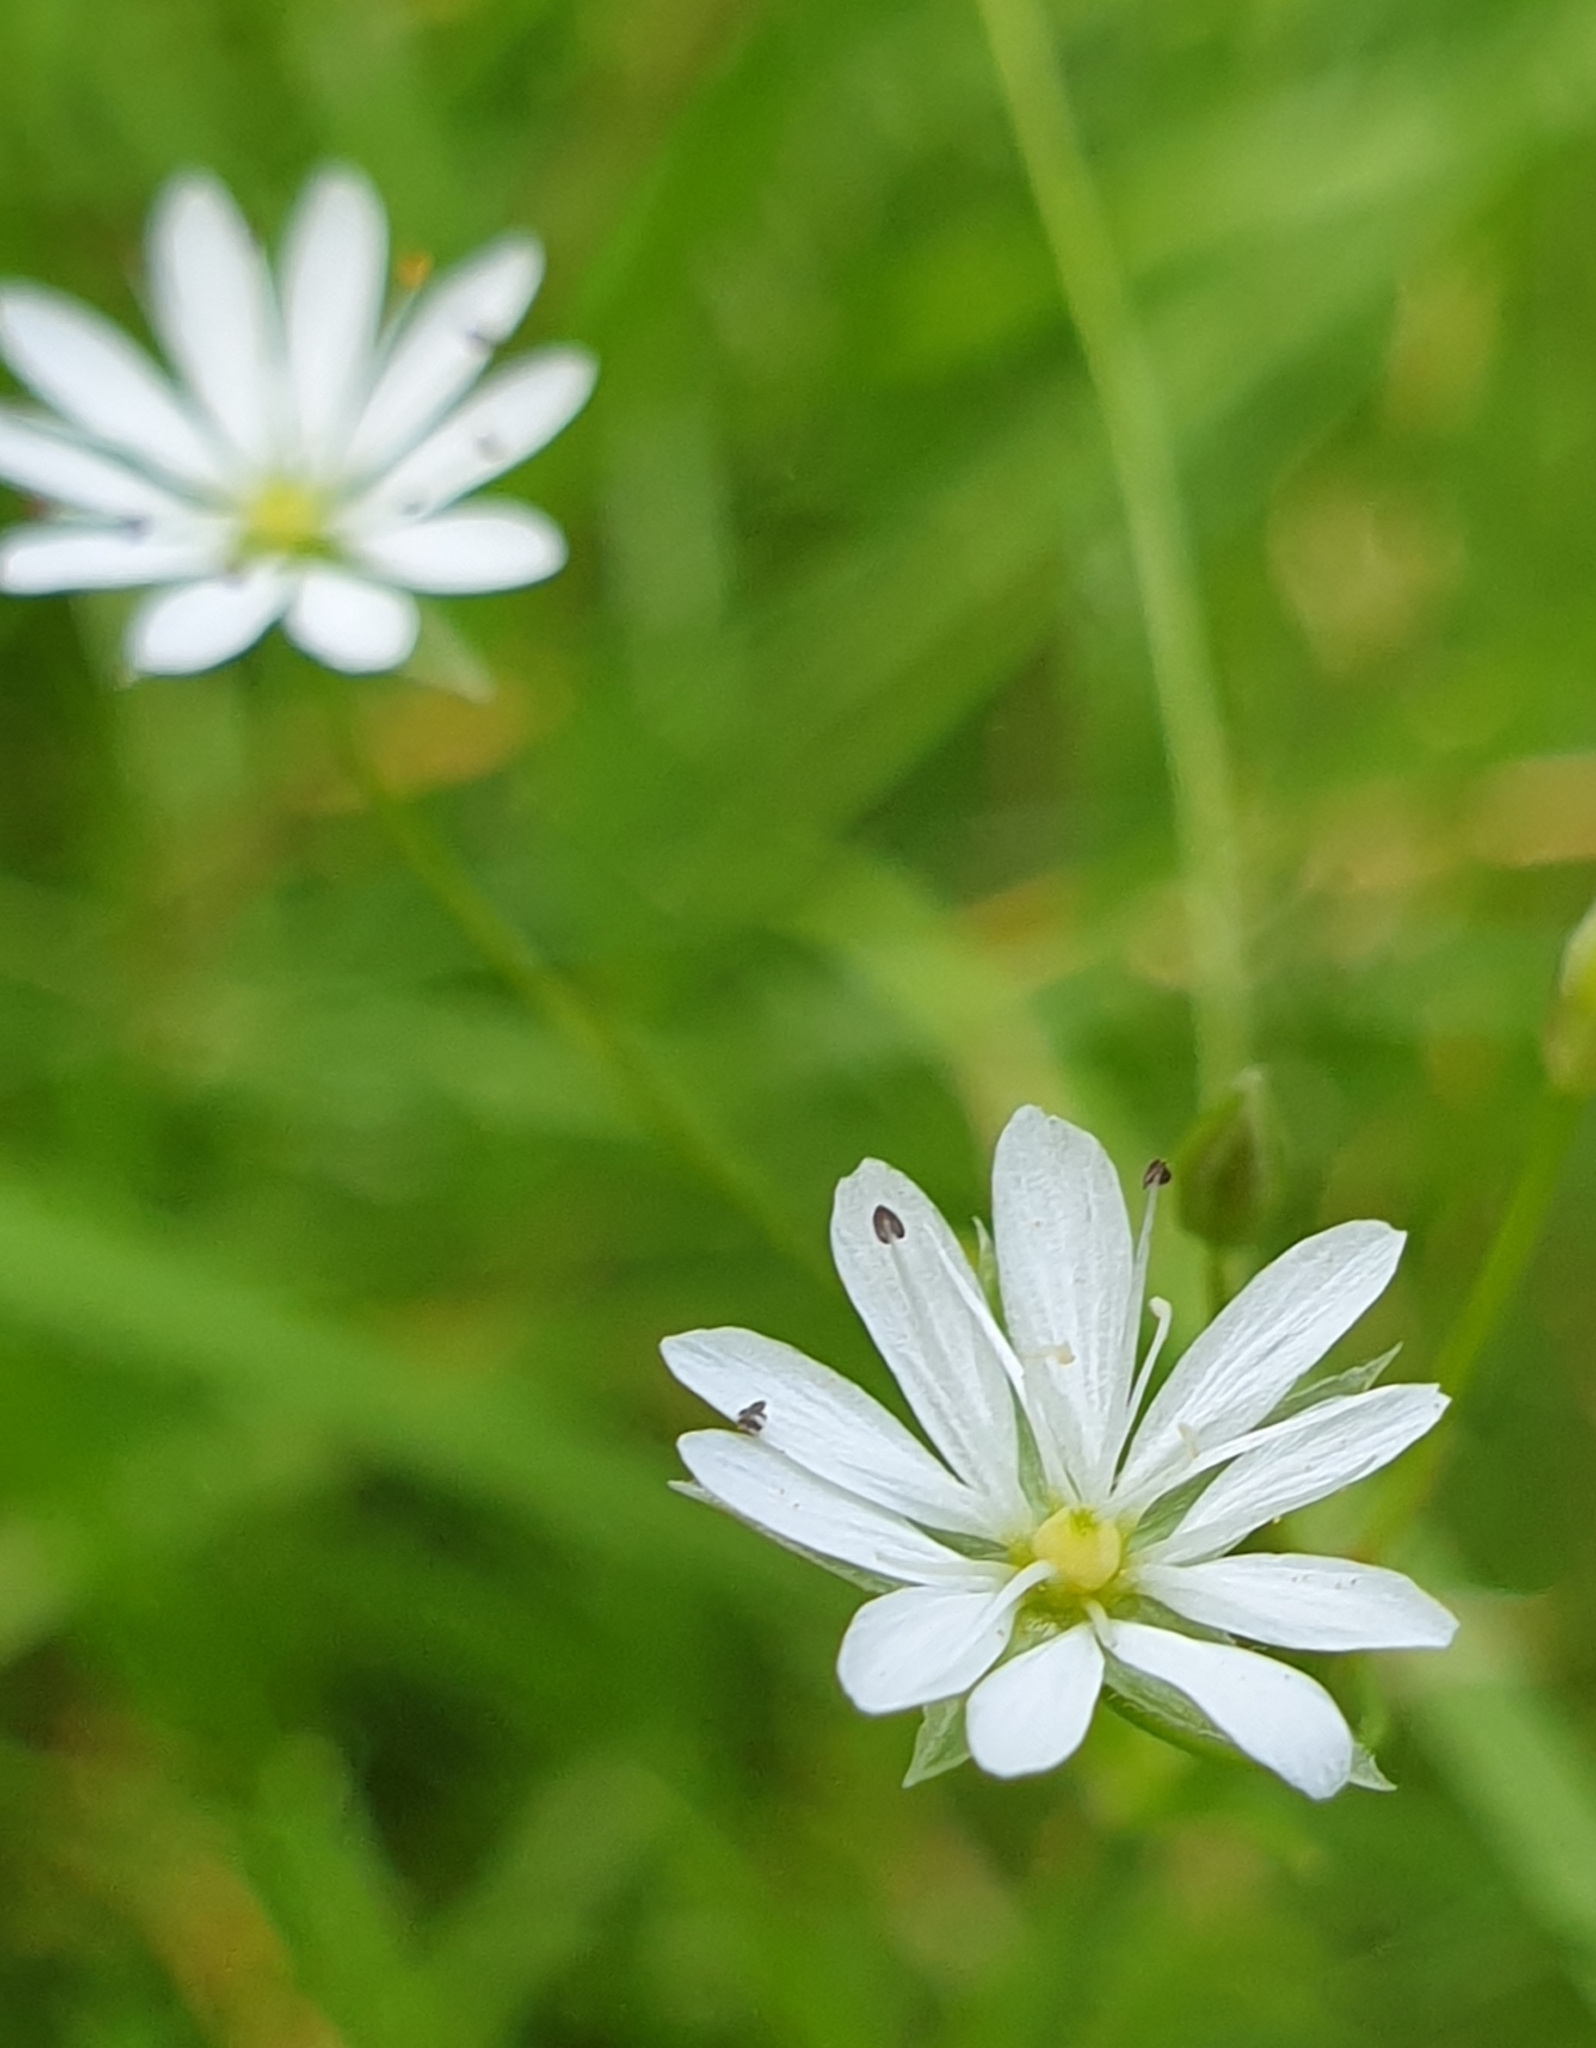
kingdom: Plantae
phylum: Tracheophyta
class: Magnoliopsida
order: Caryophyllales
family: Caryophyllaceae
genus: Stellaria
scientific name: Stellaria graminea
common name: Grass-like starwort
